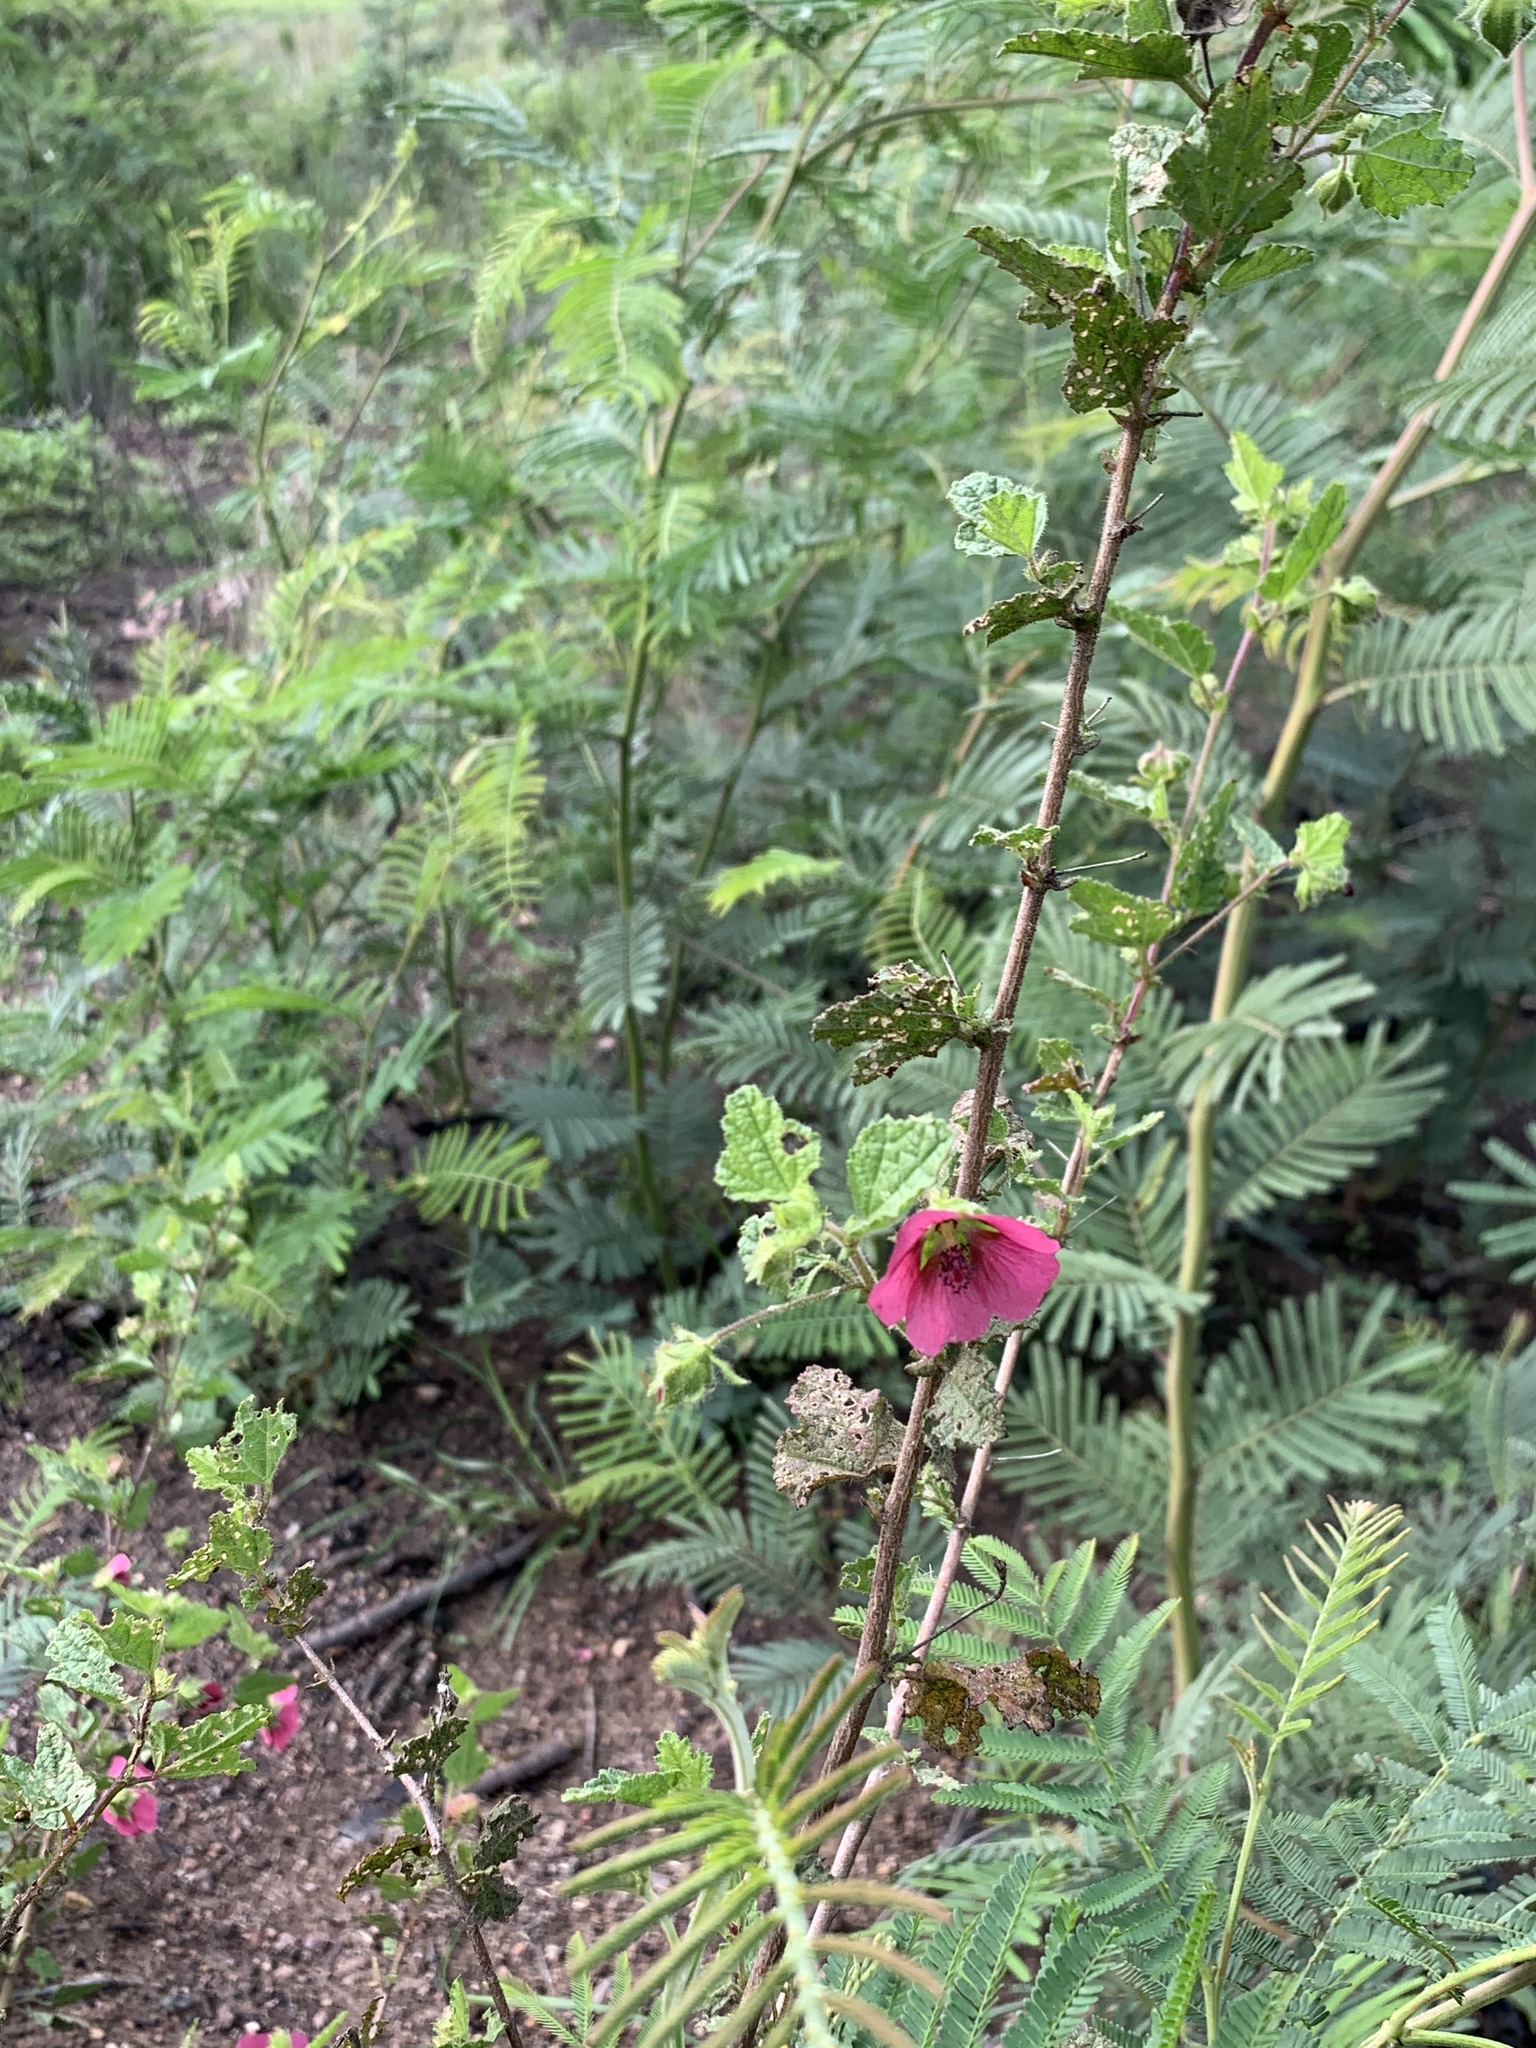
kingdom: Plantae
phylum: Tracheophyta
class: Magnoliopsida
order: Malvales
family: Malvaceae
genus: Anisodontea
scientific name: Anisodontea scabrosa
